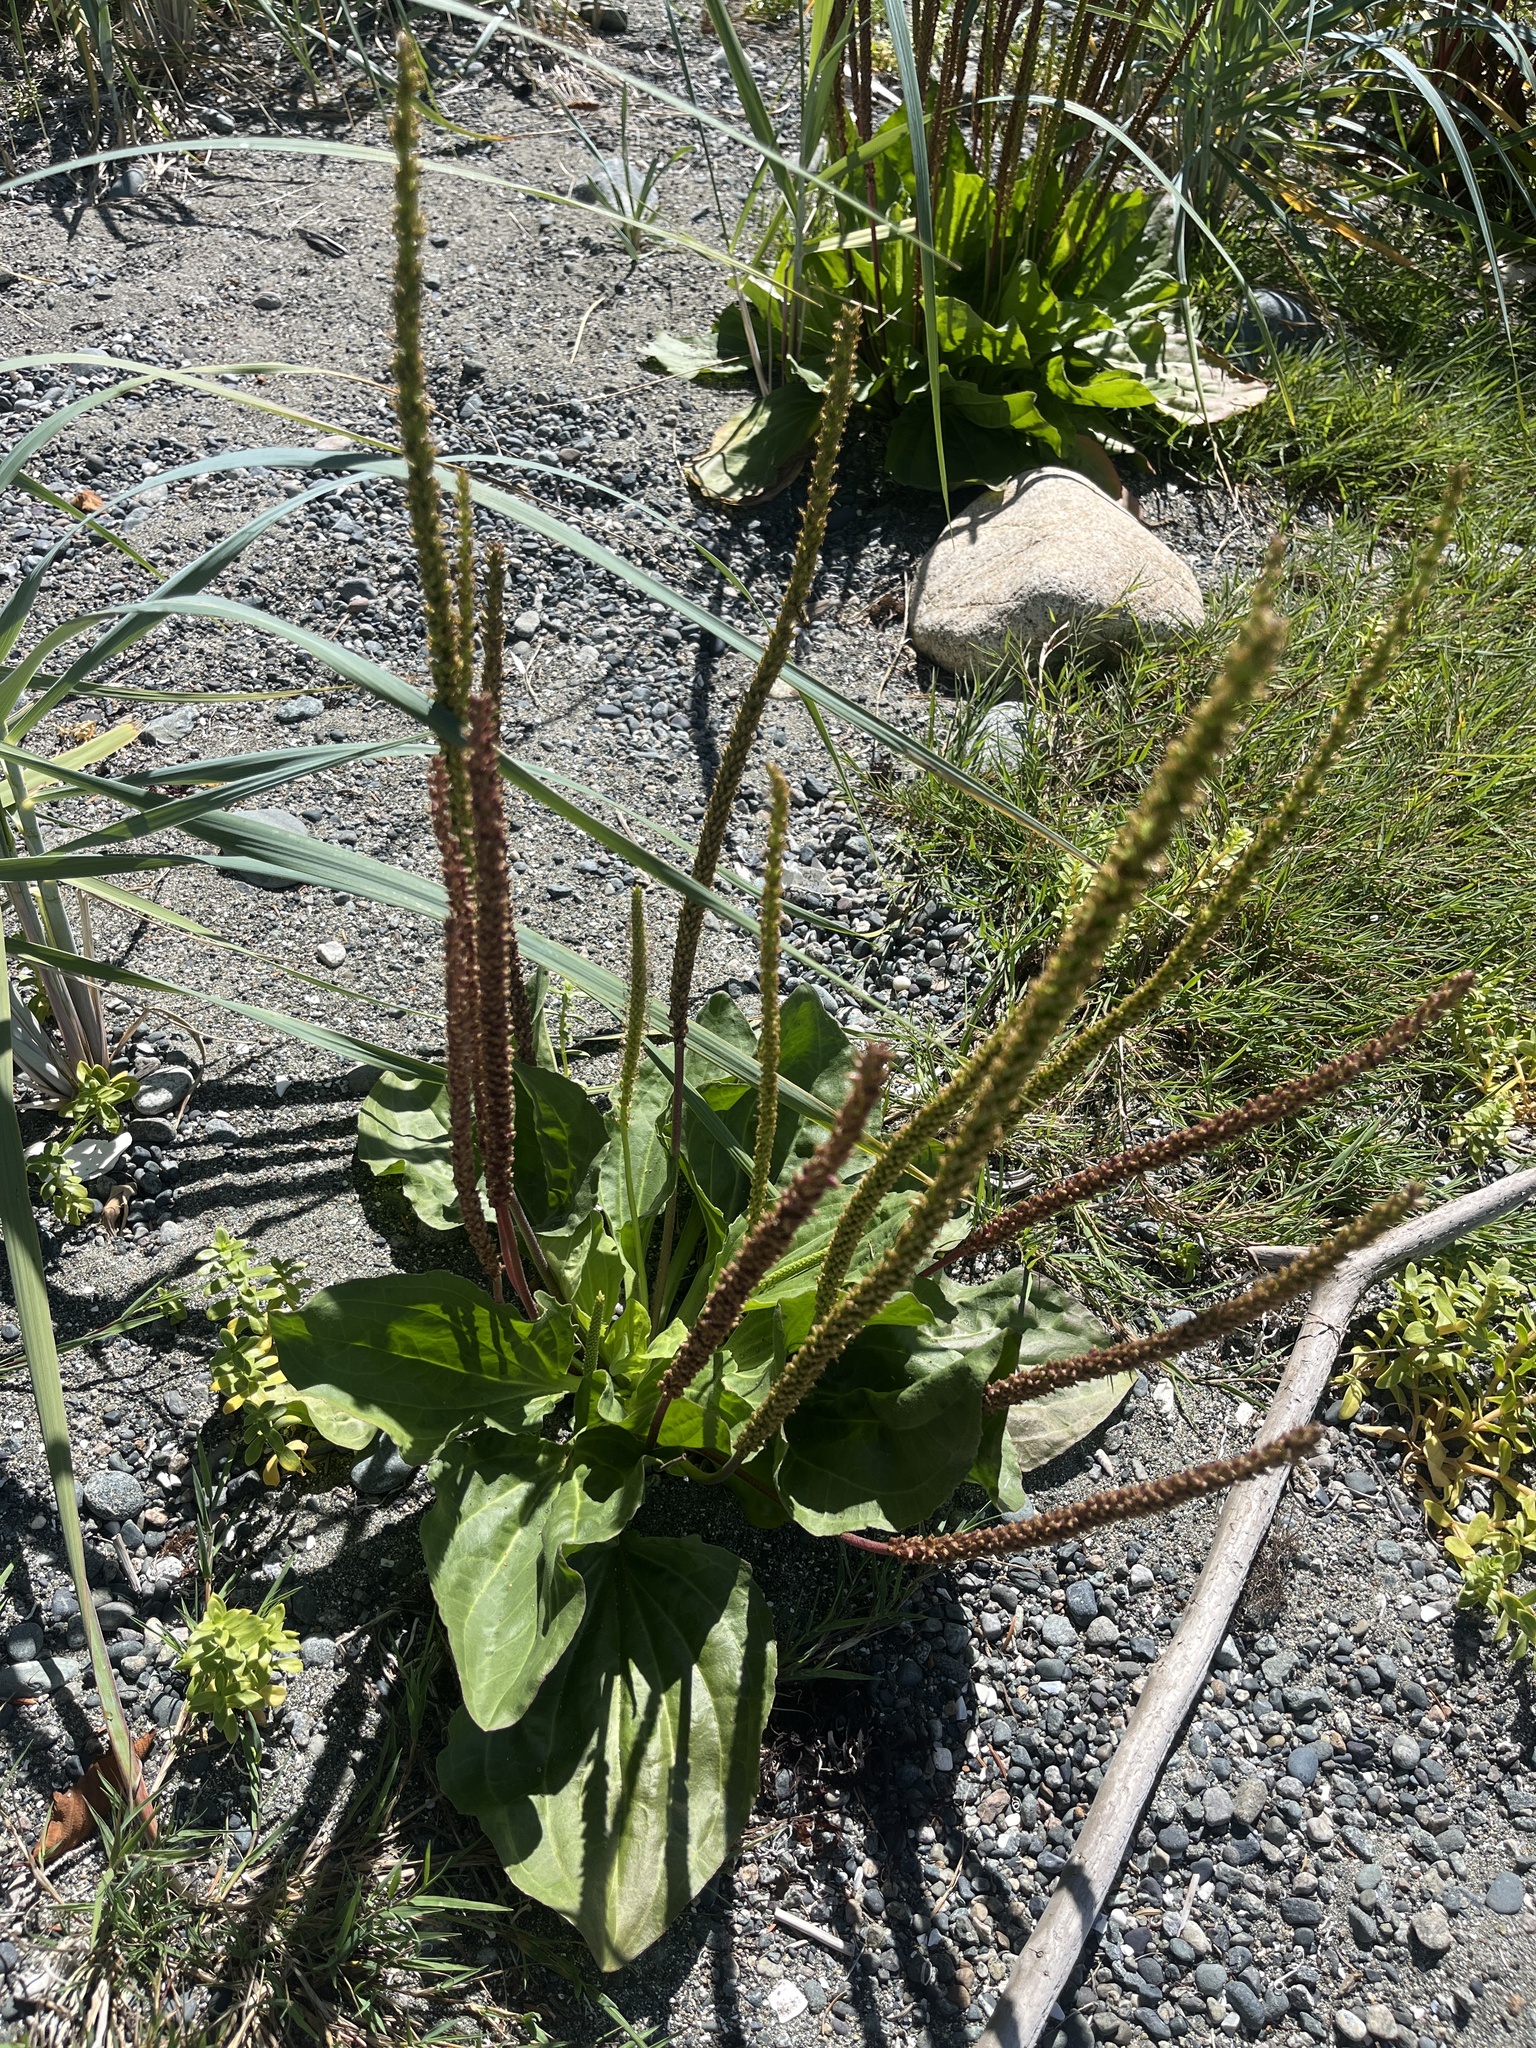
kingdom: Plantae
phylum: Tracheophyta
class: Magnoliopsida
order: Lamiales
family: Plantaginaceae
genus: Plantago
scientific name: Plantago major
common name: Common plantain
